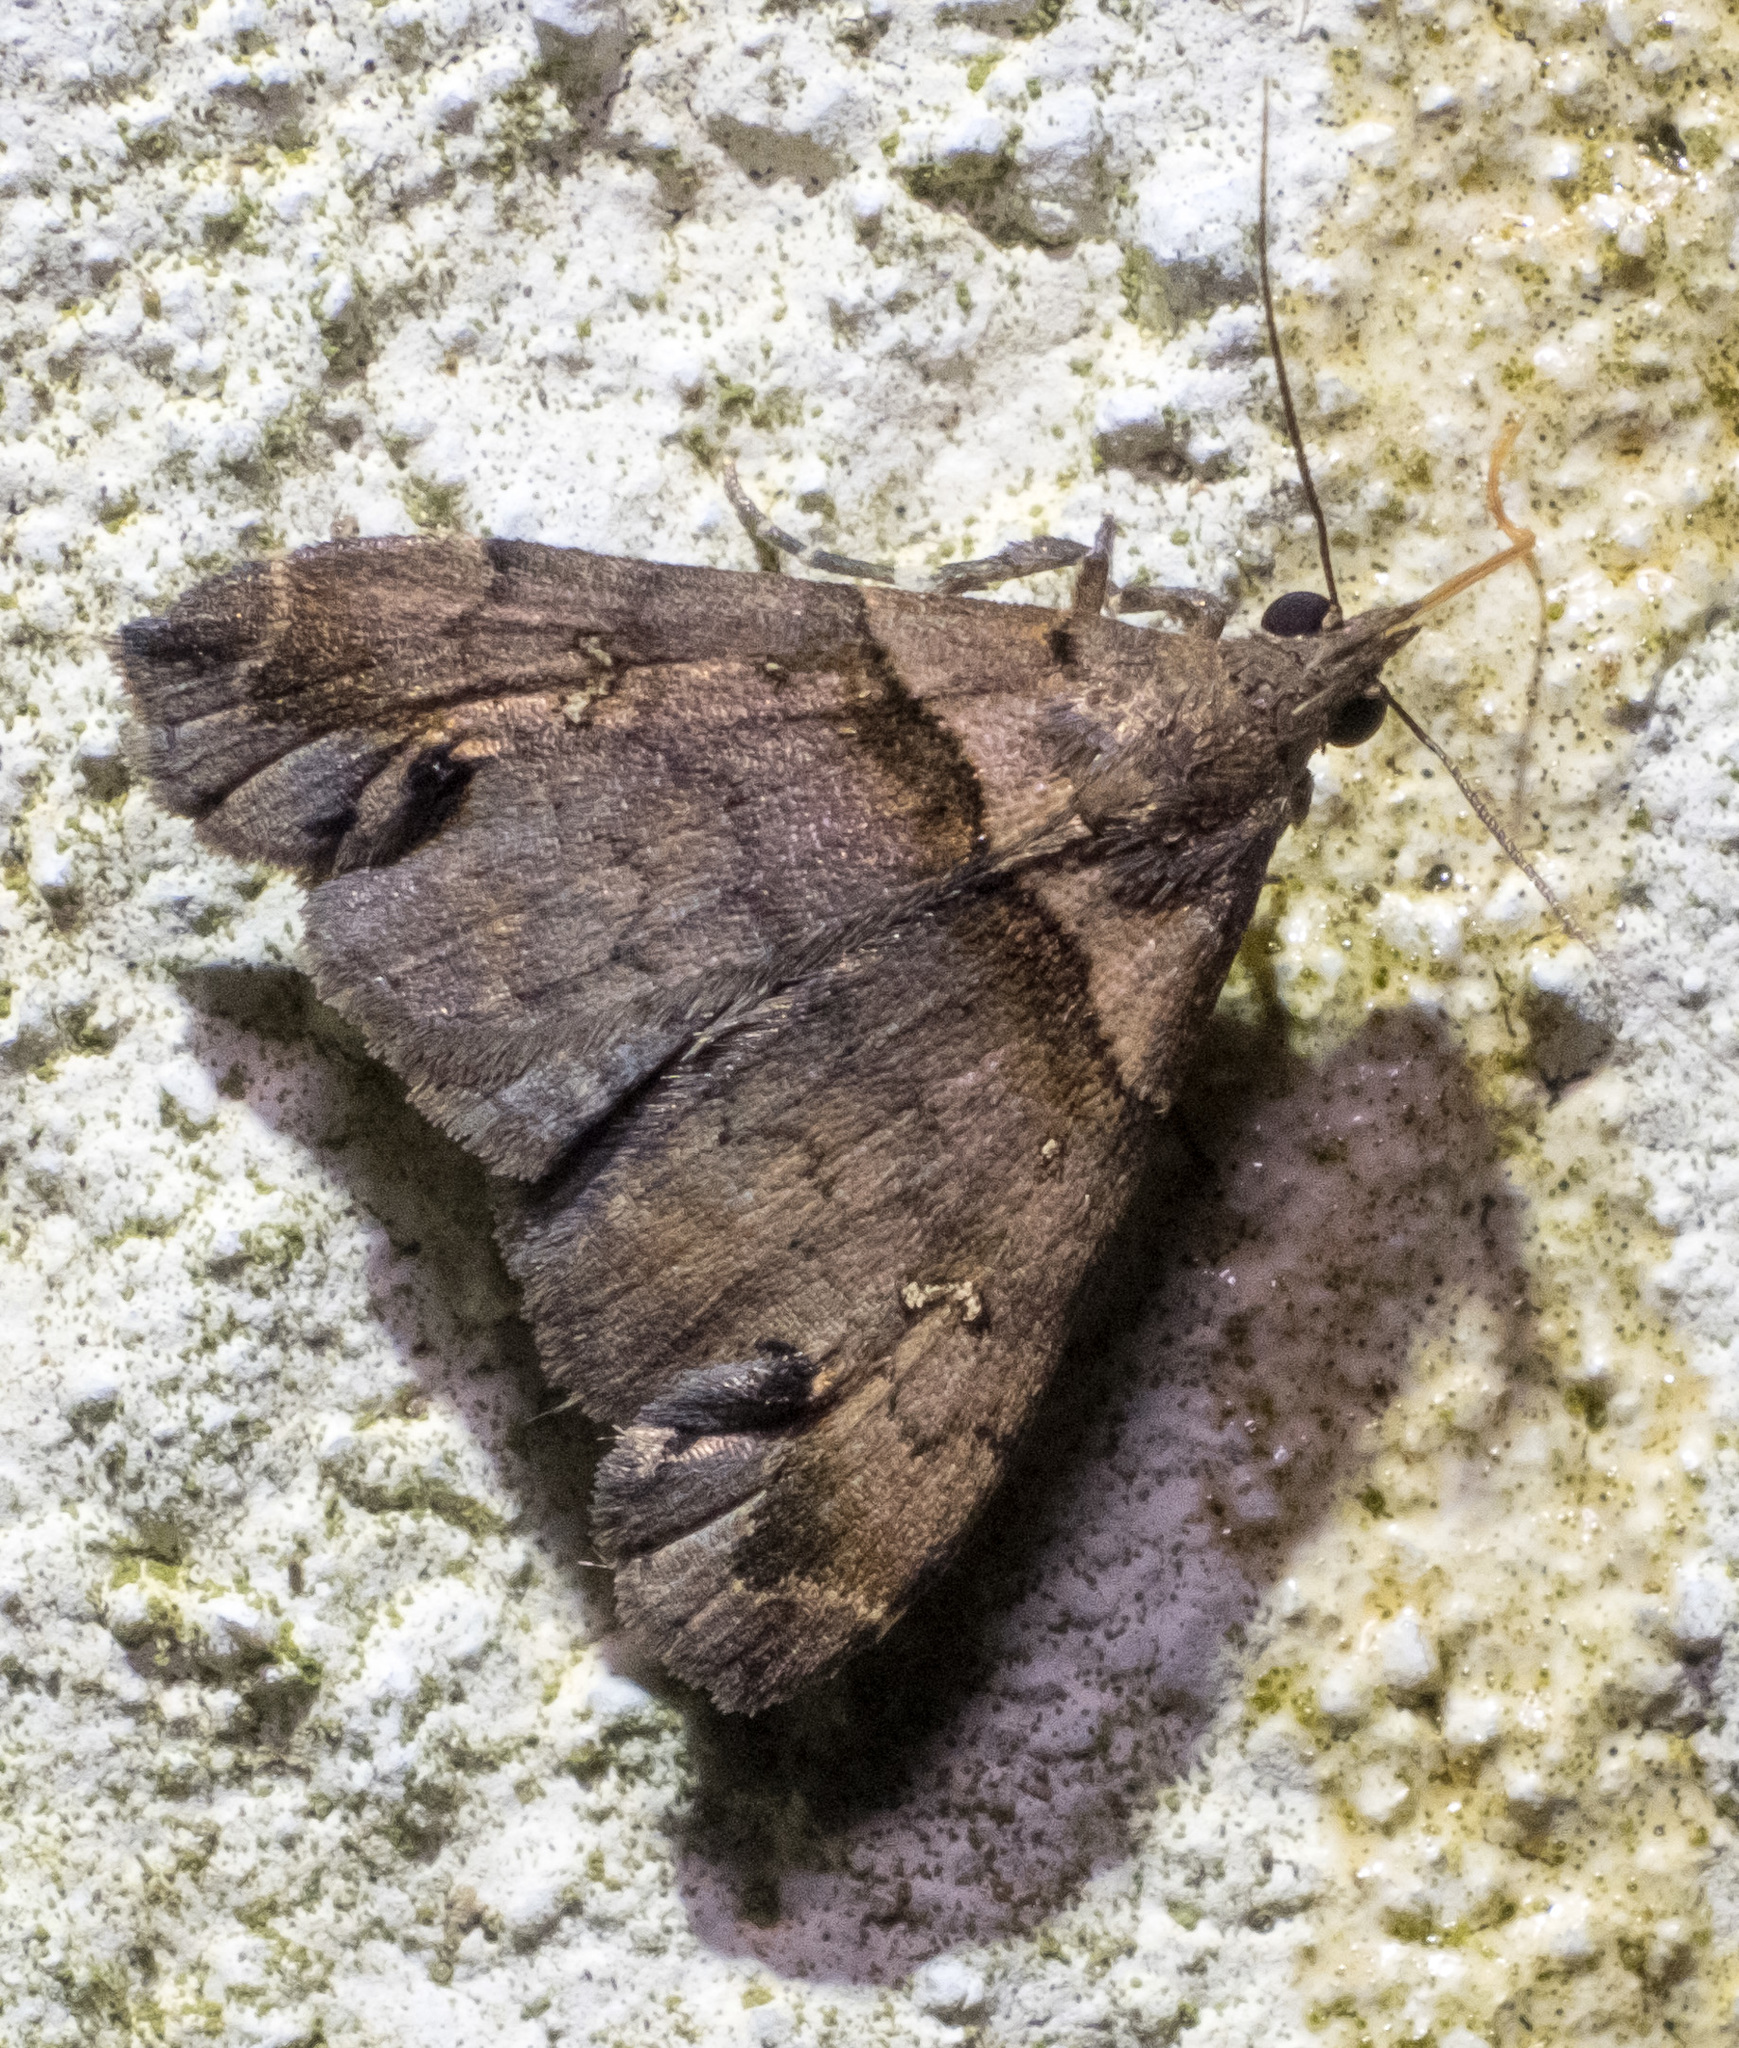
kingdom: Animalia
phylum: Arthropoda
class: Insecta
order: Lepidoptera
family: Erebidae
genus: Lascoria
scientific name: Lascoria ambigualis
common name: Ambiguous moth
